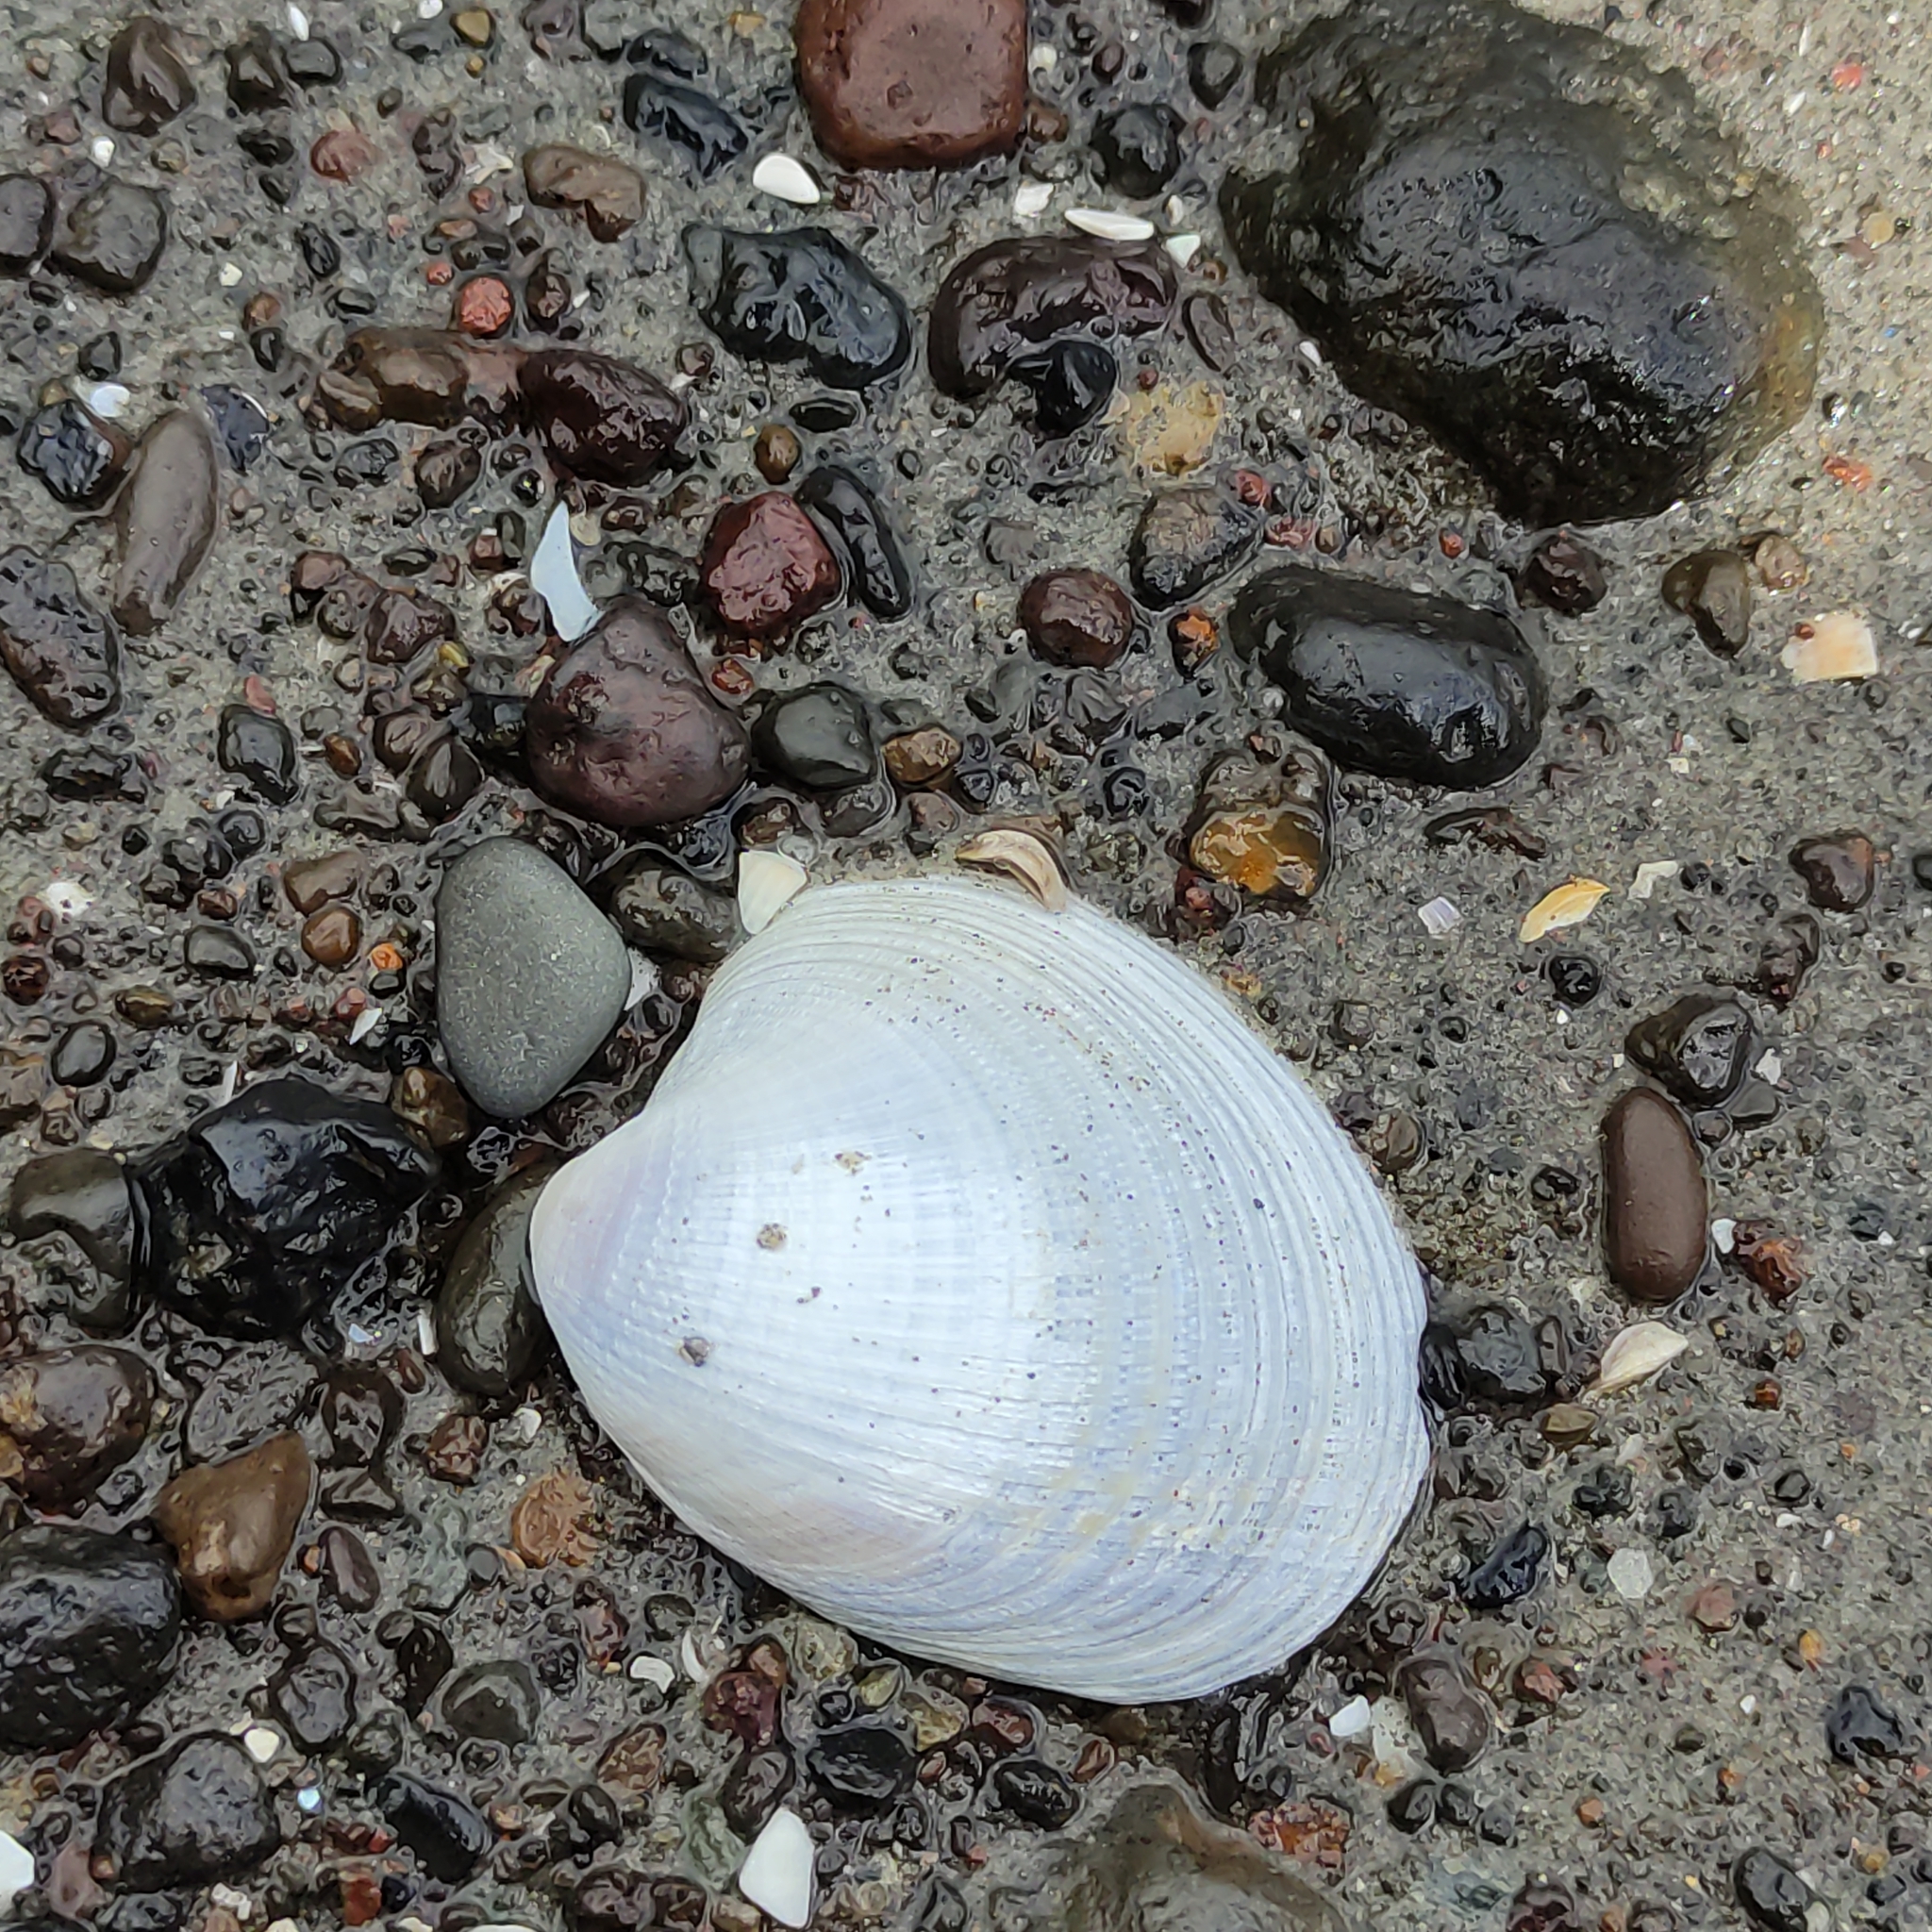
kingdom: Animalia
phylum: Mollusca
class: Bivalvia
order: Venerida
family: Veneridae
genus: Austrovenus
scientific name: Austrovenus stutchburyi
